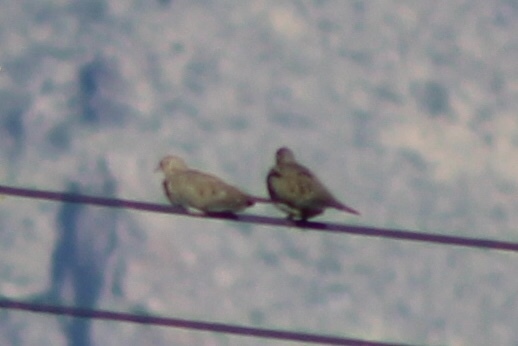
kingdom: Animalia
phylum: Chordata
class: Aves
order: Columbiformes
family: Columbidae
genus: Zenaida
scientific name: Zenaida macroura
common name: Mourning dove
